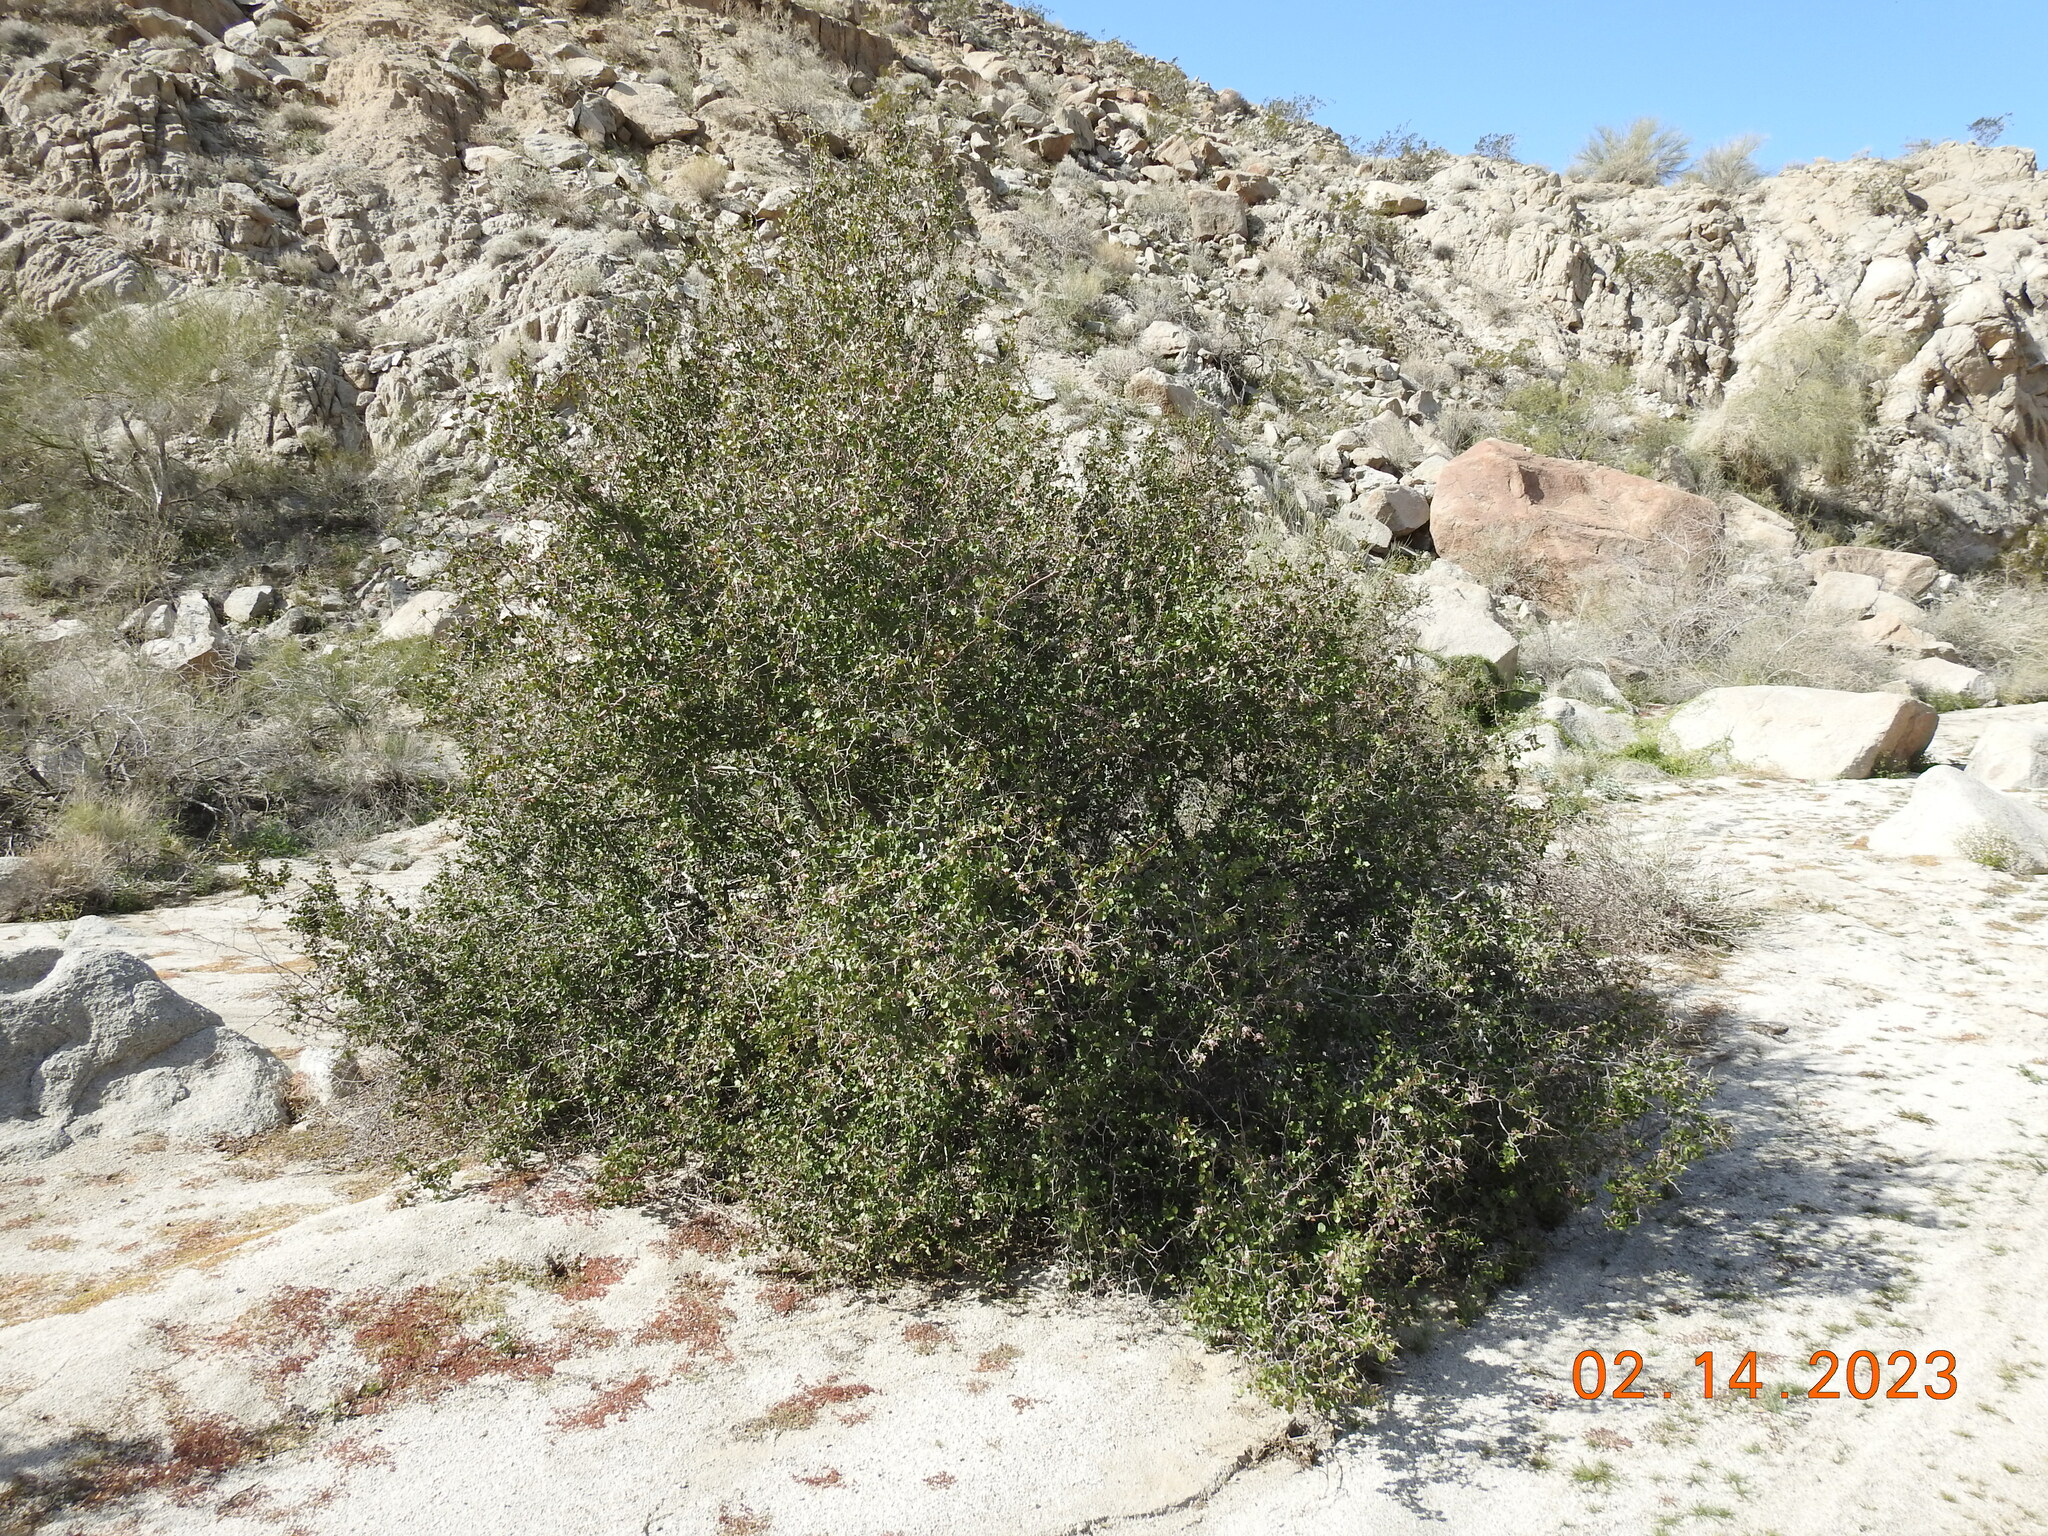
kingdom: Plantae
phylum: Tracheophyta
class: Magnoliopsida
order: Rosales
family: Rosaceae
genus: Prunus
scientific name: Prunus fremontii
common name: Desert apricot
